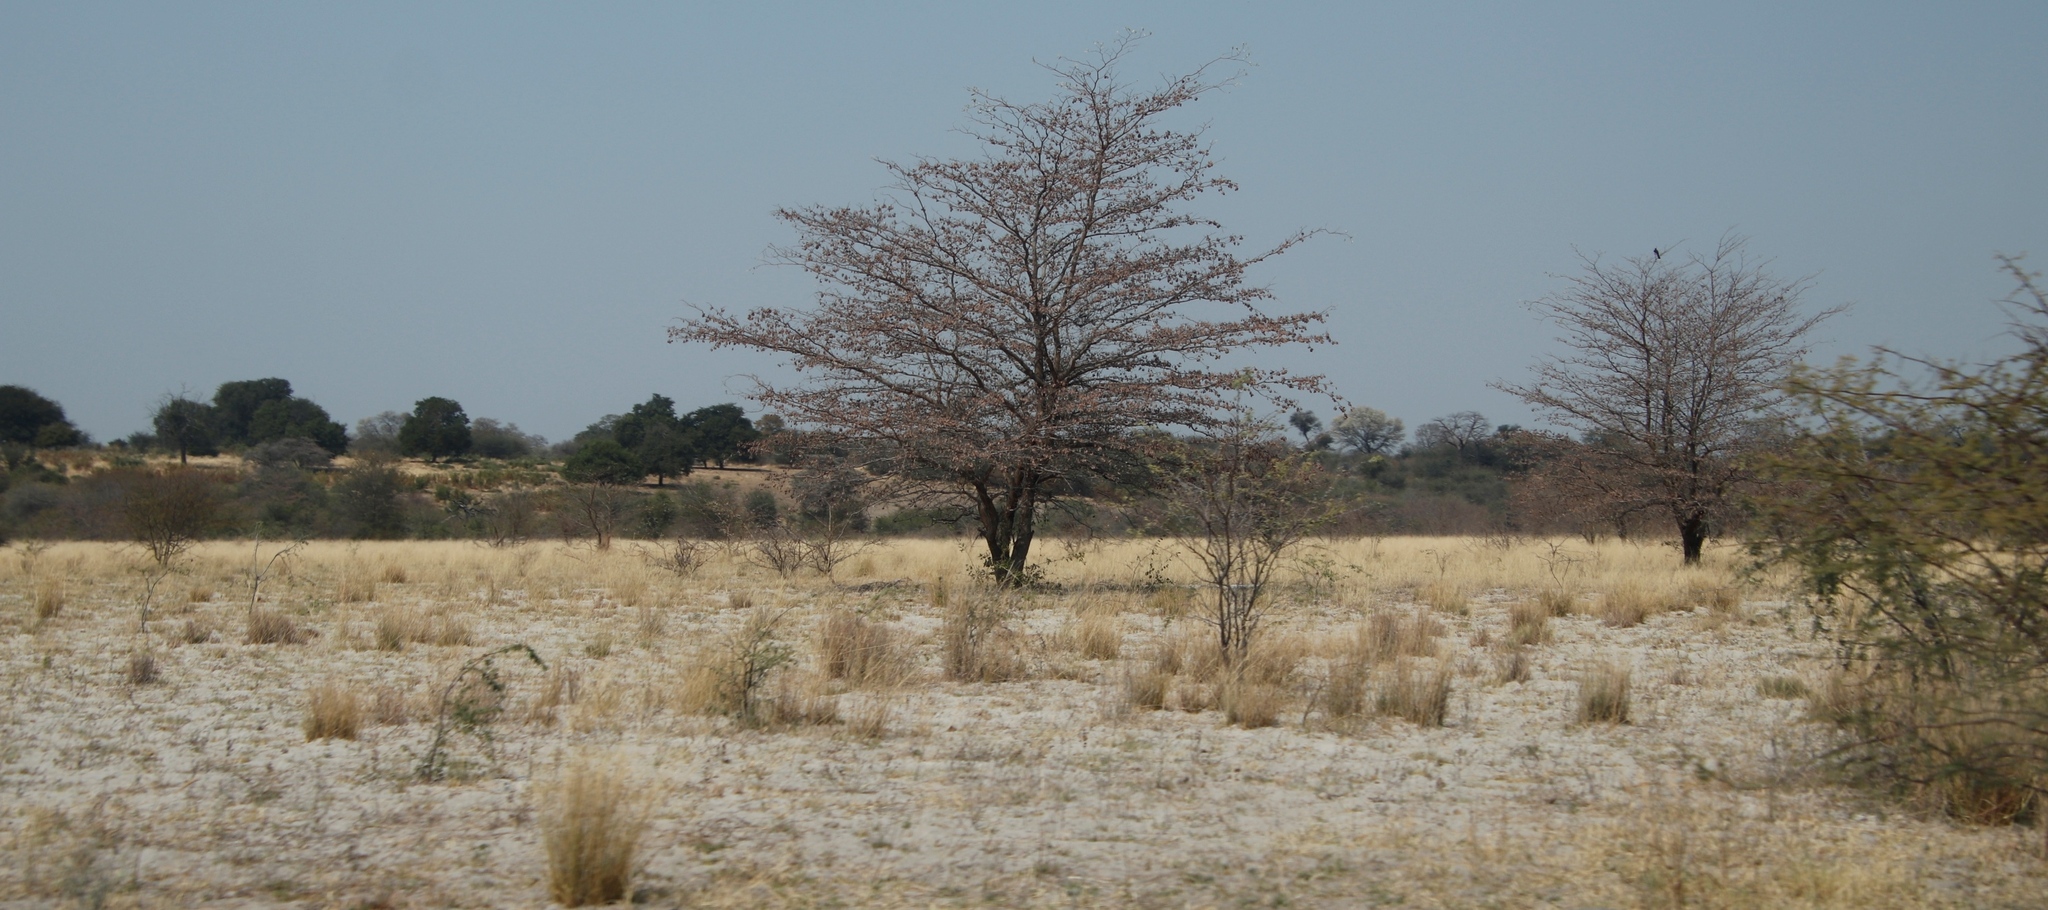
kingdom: Plantae
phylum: Tracheophyta
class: Magnoliopsida
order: Myrtales
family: Combretaceae
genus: Terminalia
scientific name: Terminalia sericea
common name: Clusterleaf
